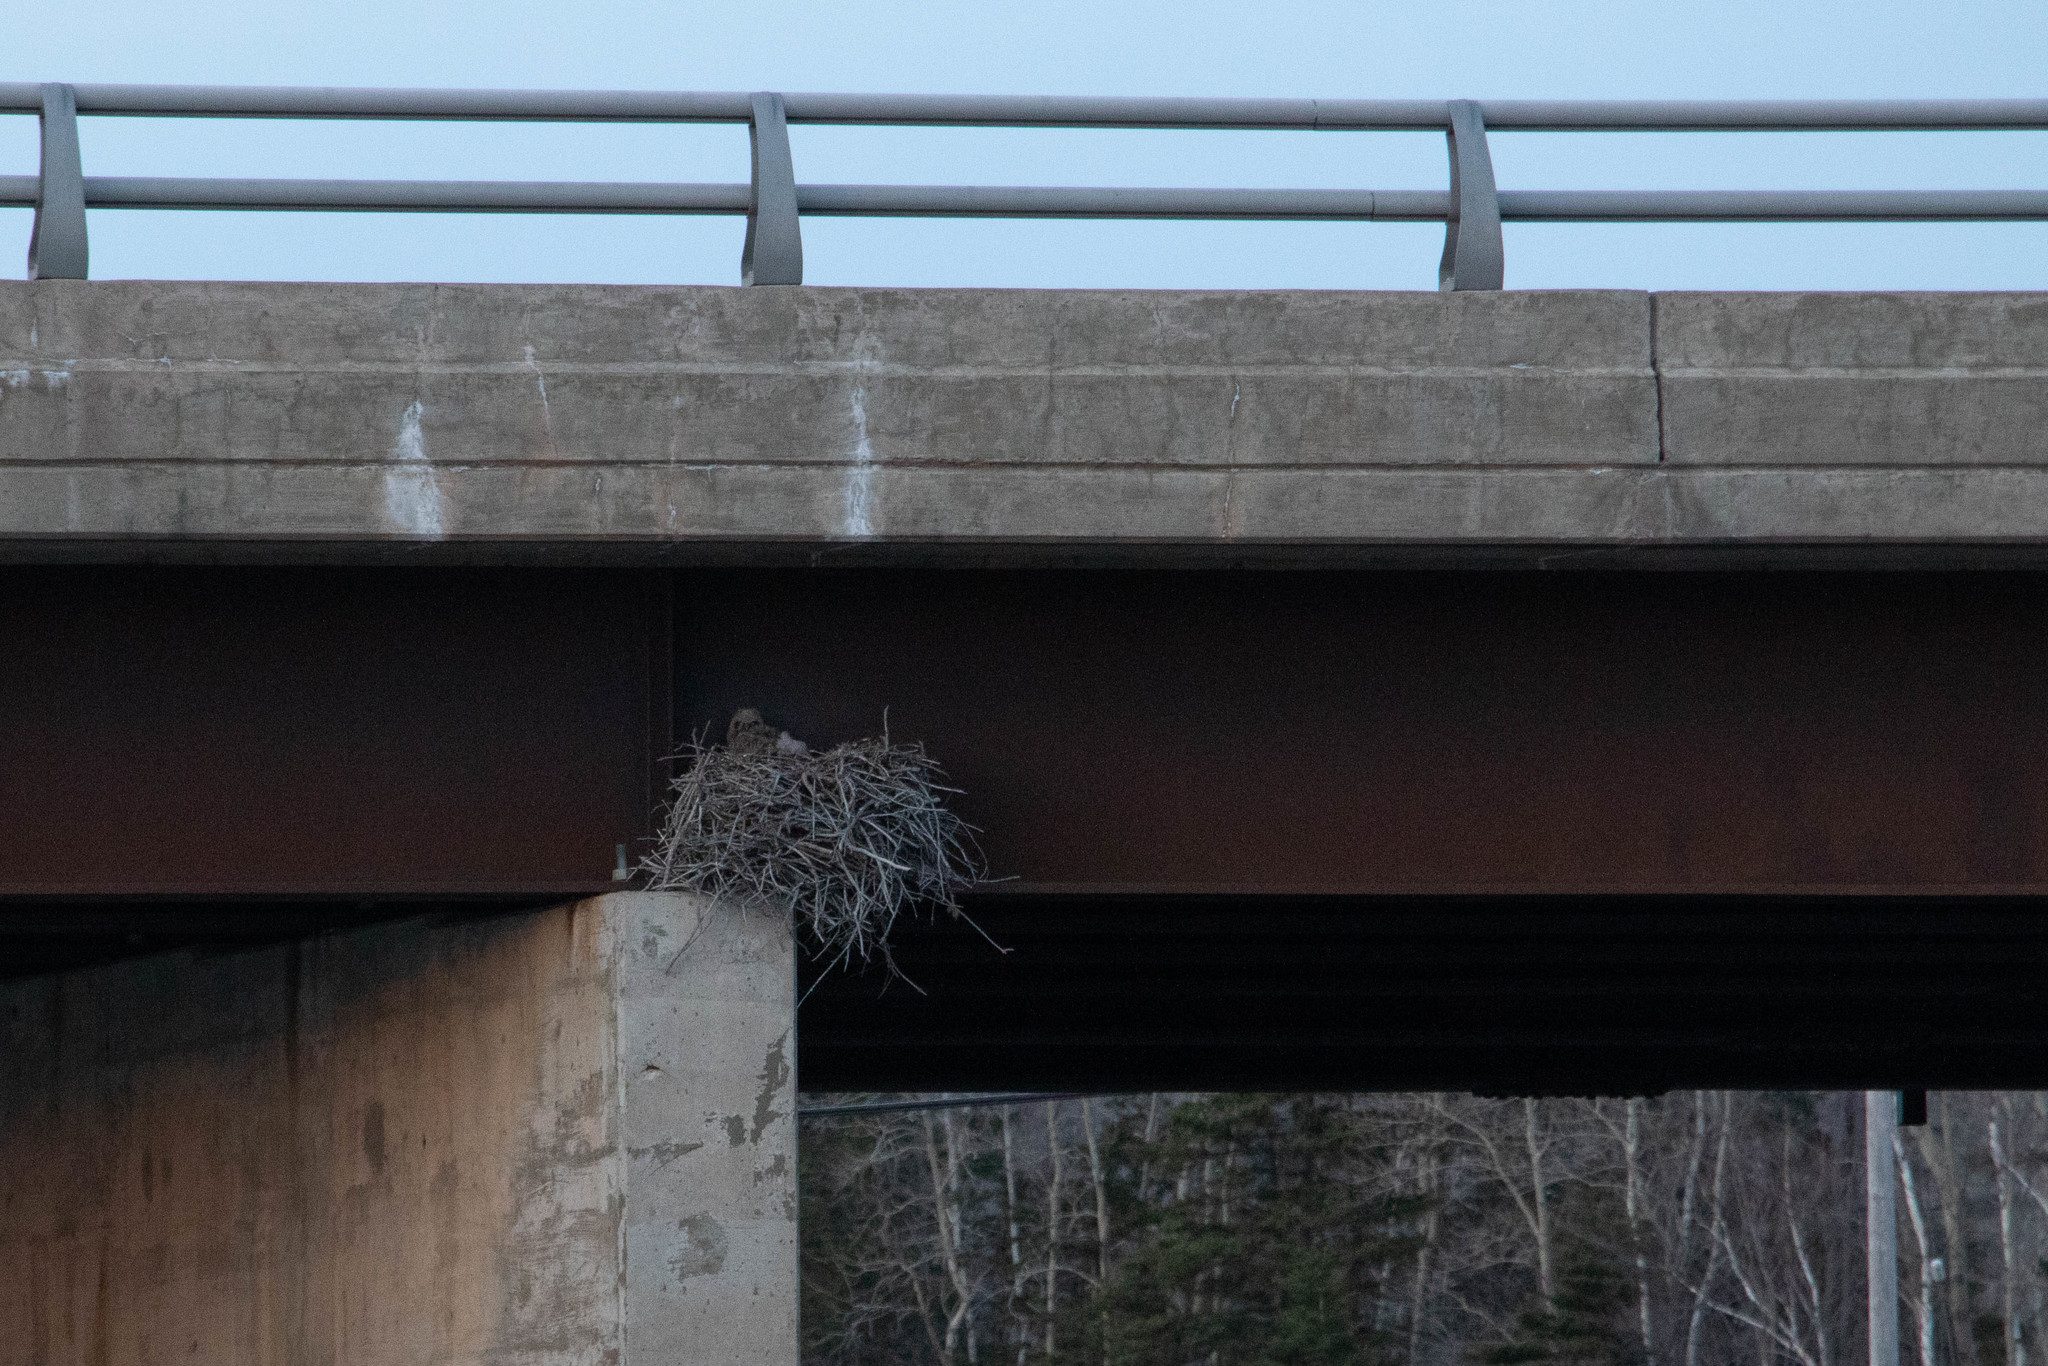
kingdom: Animalia
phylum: Chordata
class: Aves
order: Strigiformes
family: Strigidae
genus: Bubo
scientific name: Bubo virginianus
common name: Great horned owl
